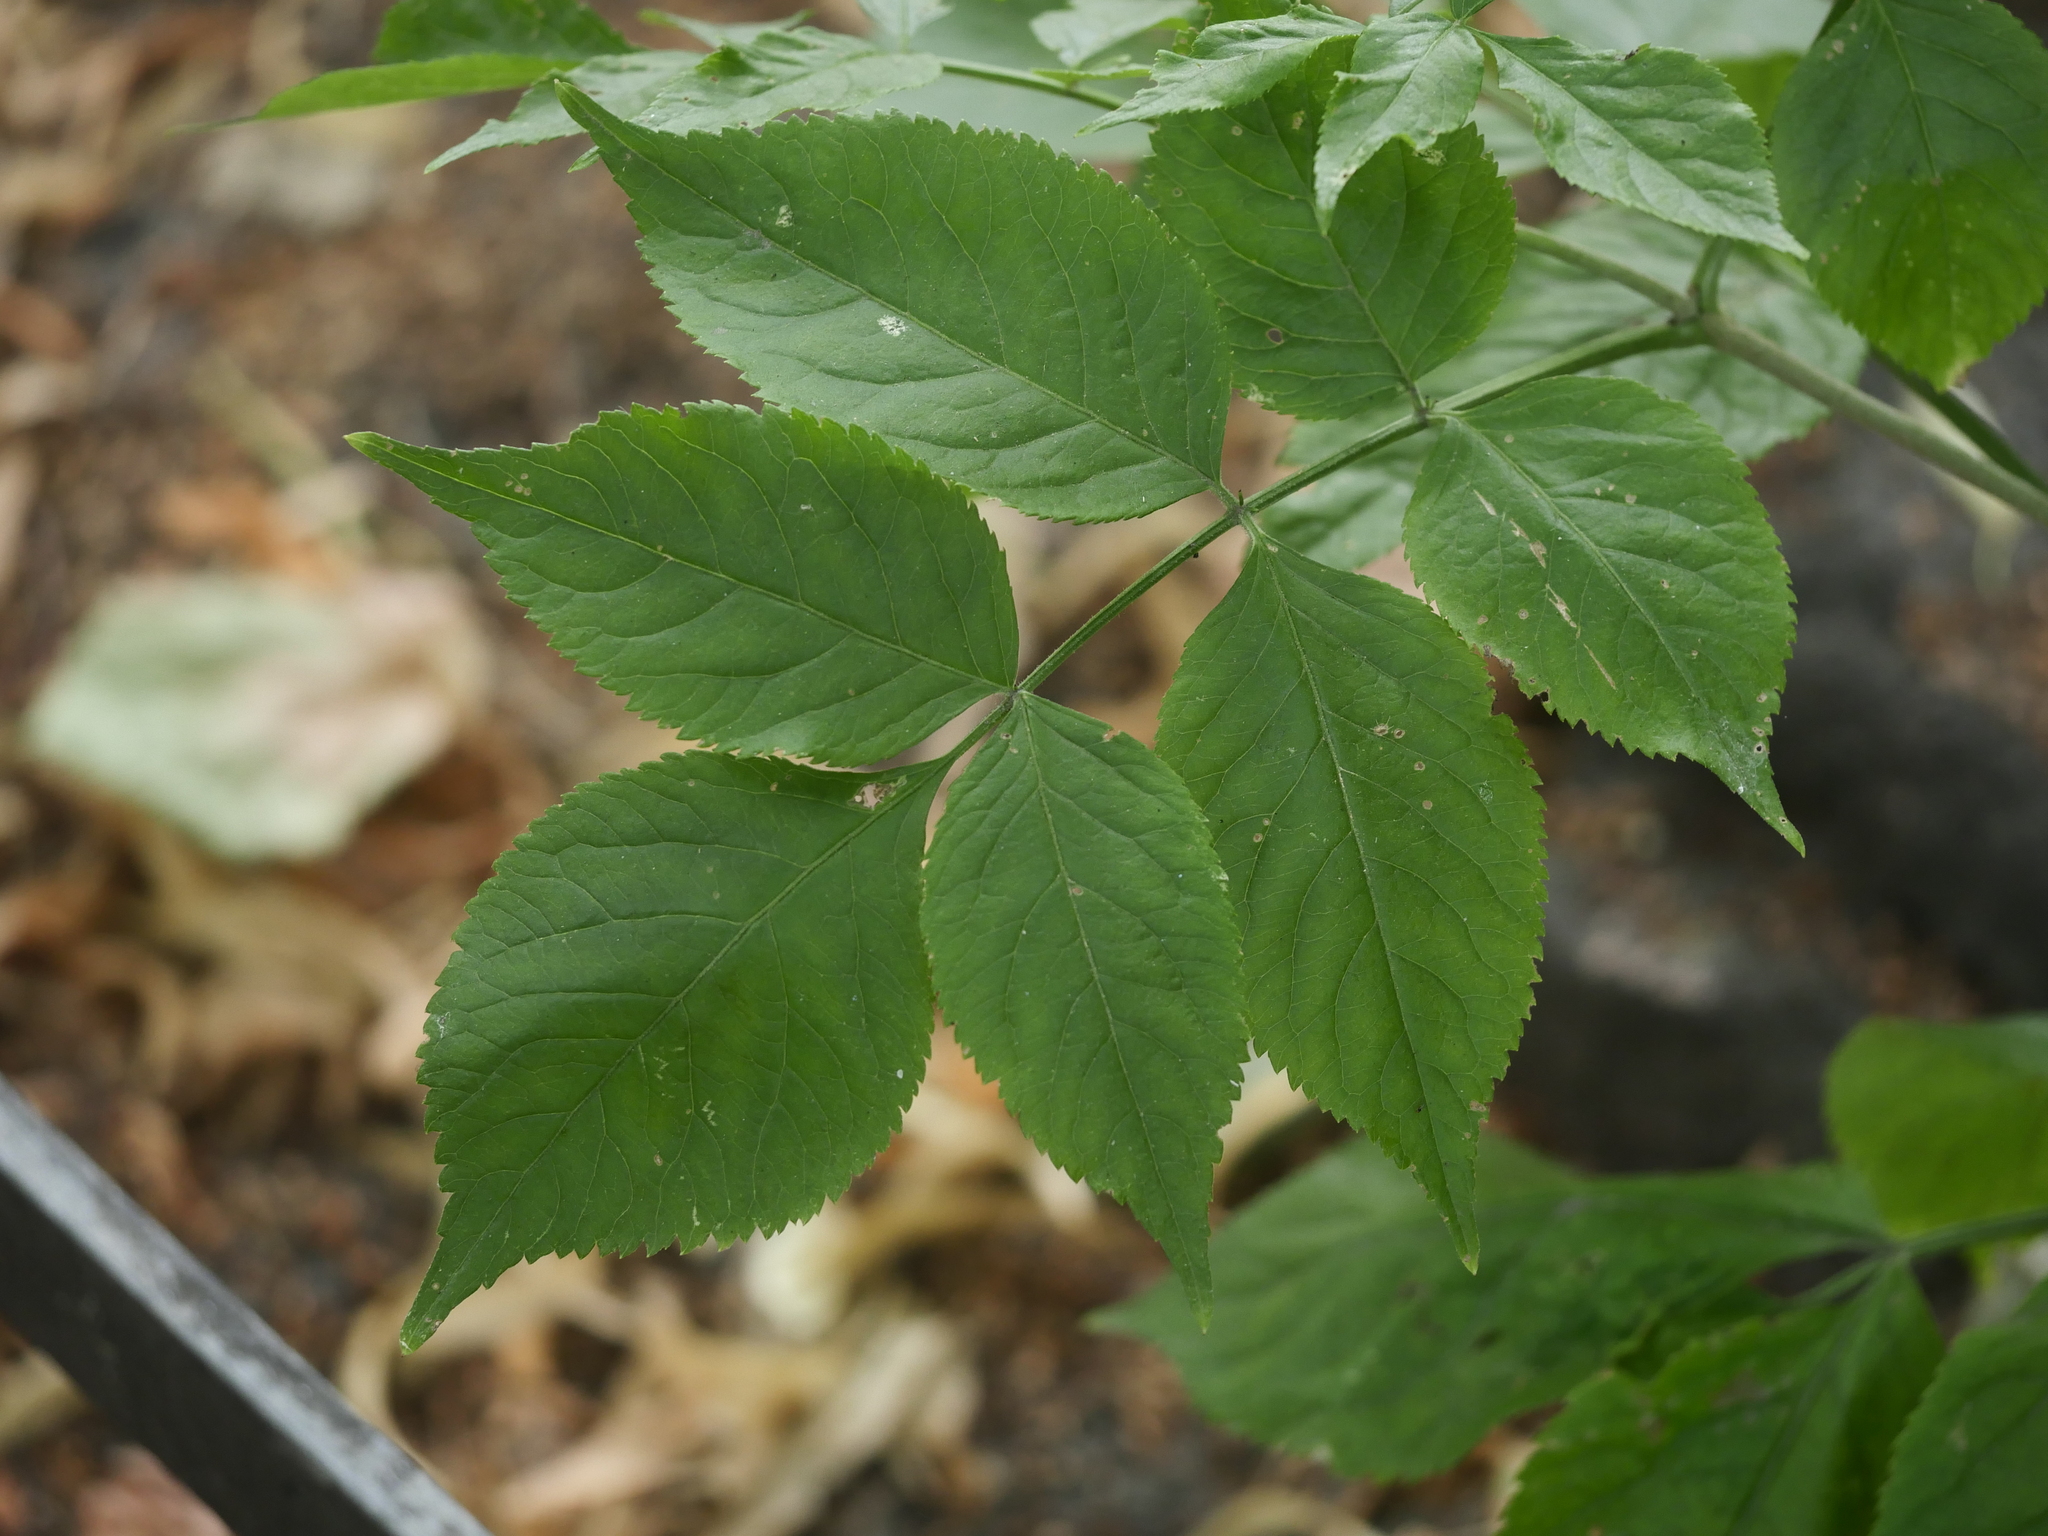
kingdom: Plantae
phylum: Tracheophyta
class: Magnoliopsida
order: Dipsacales
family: Viburnaceae
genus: Sambucus
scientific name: Sambucus nigra
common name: Elder
